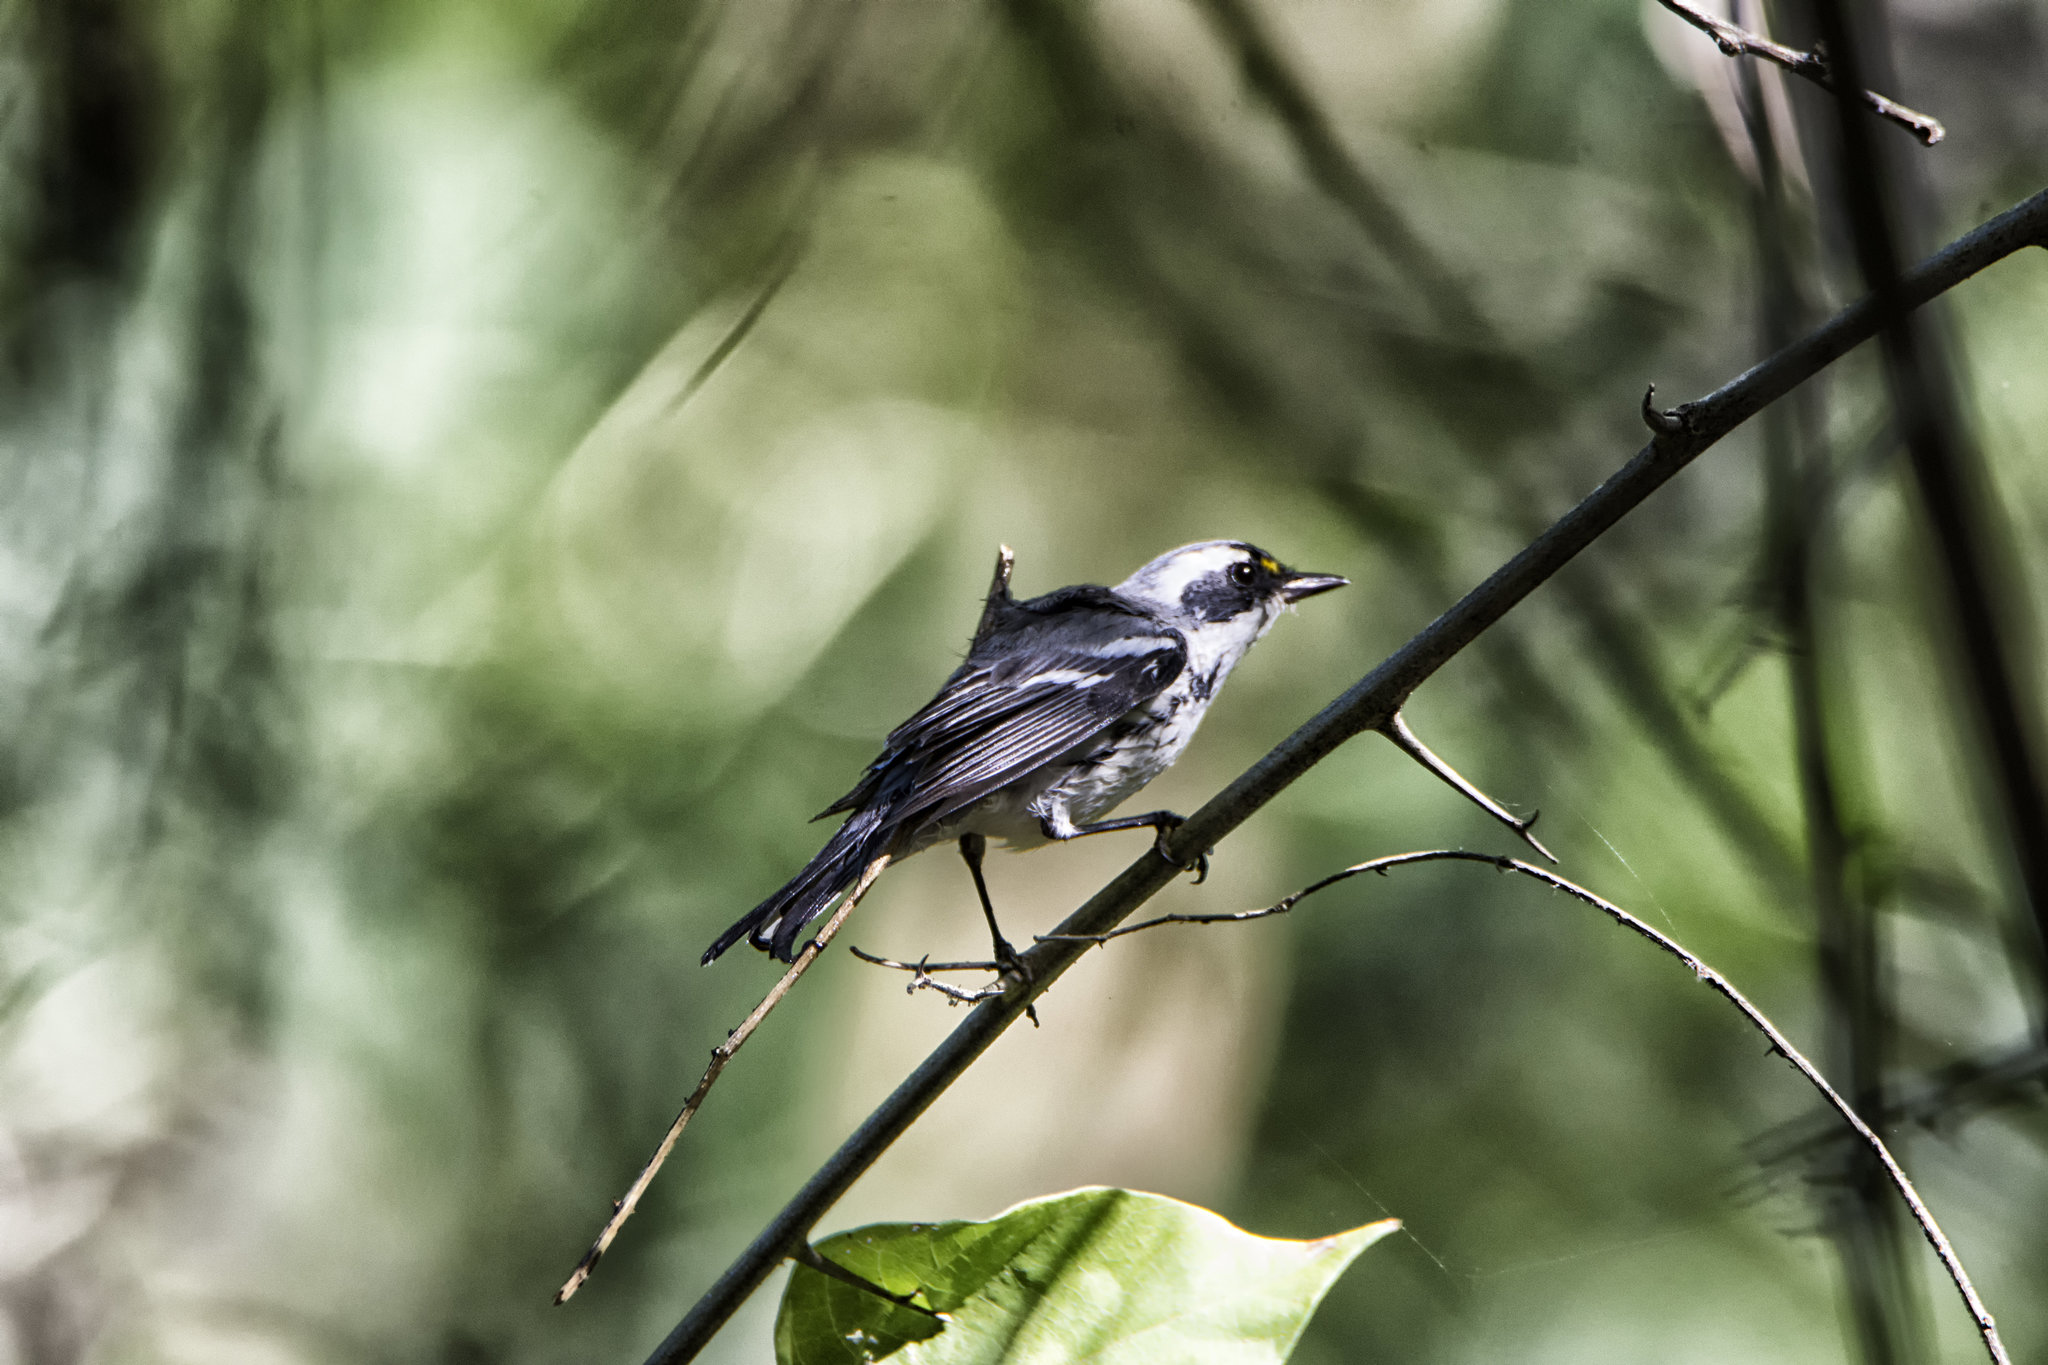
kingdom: Animalia
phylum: Chordata
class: Aves
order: Passeriformes
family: Parulidae
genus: Setophaga
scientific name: Setophaga nigrescens
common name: Black-throated gray warbler
